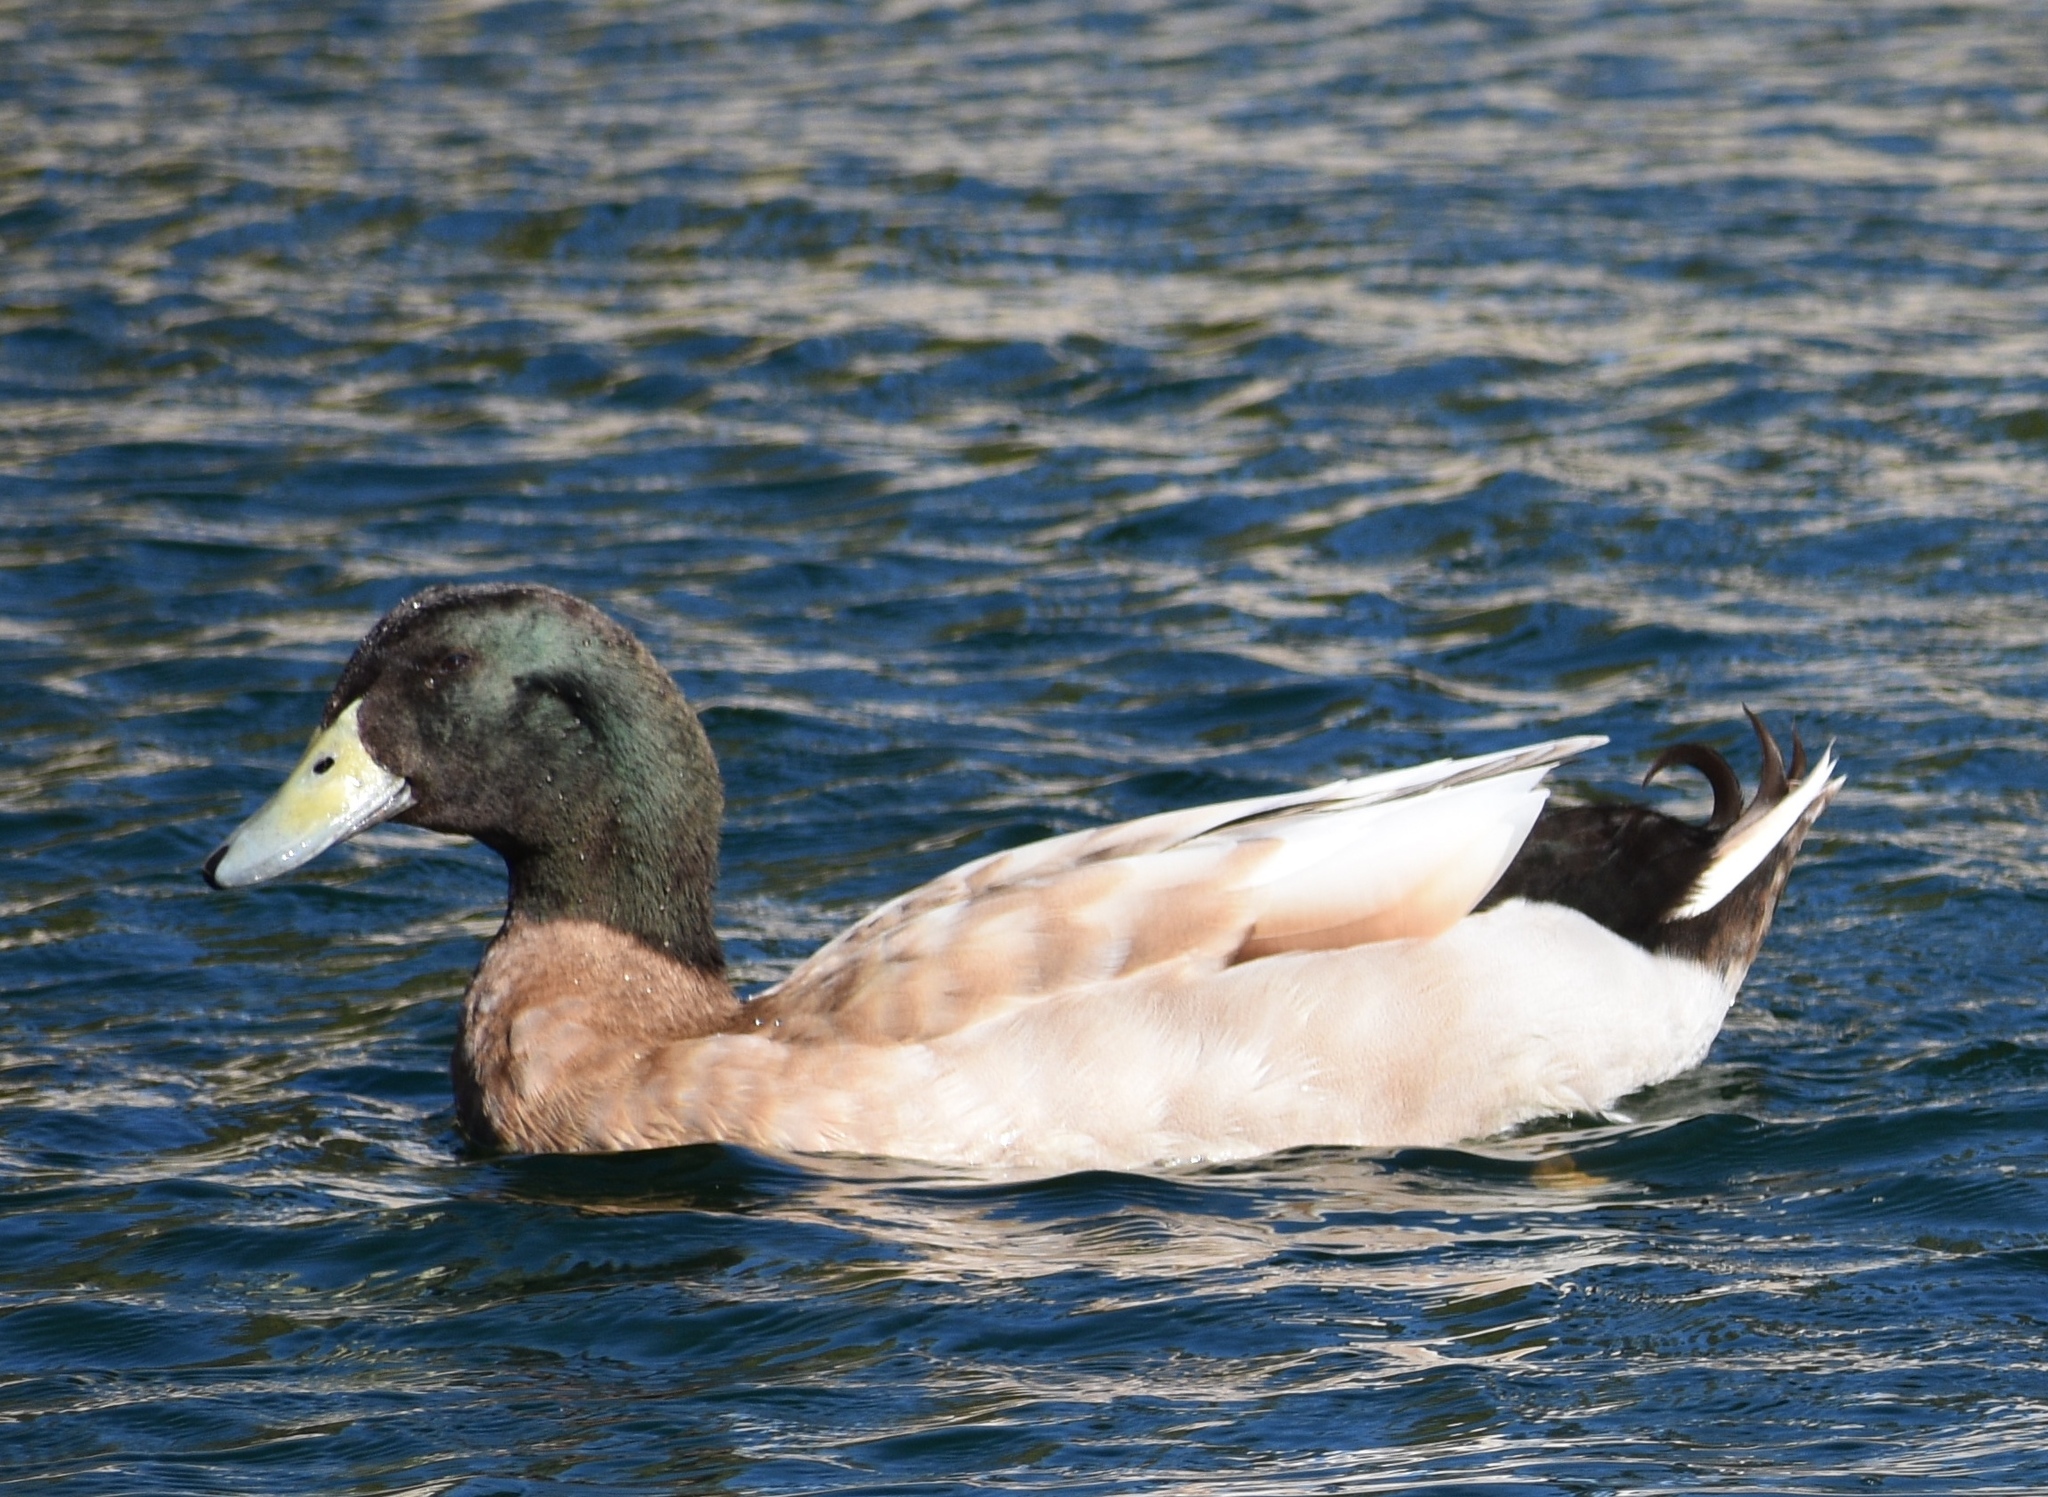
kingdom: Animalia
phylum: Chordata
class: Aves
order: Anseriformes
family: Anatidae
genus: Anas
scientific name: Anas platyrhynchos
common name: Mallard
